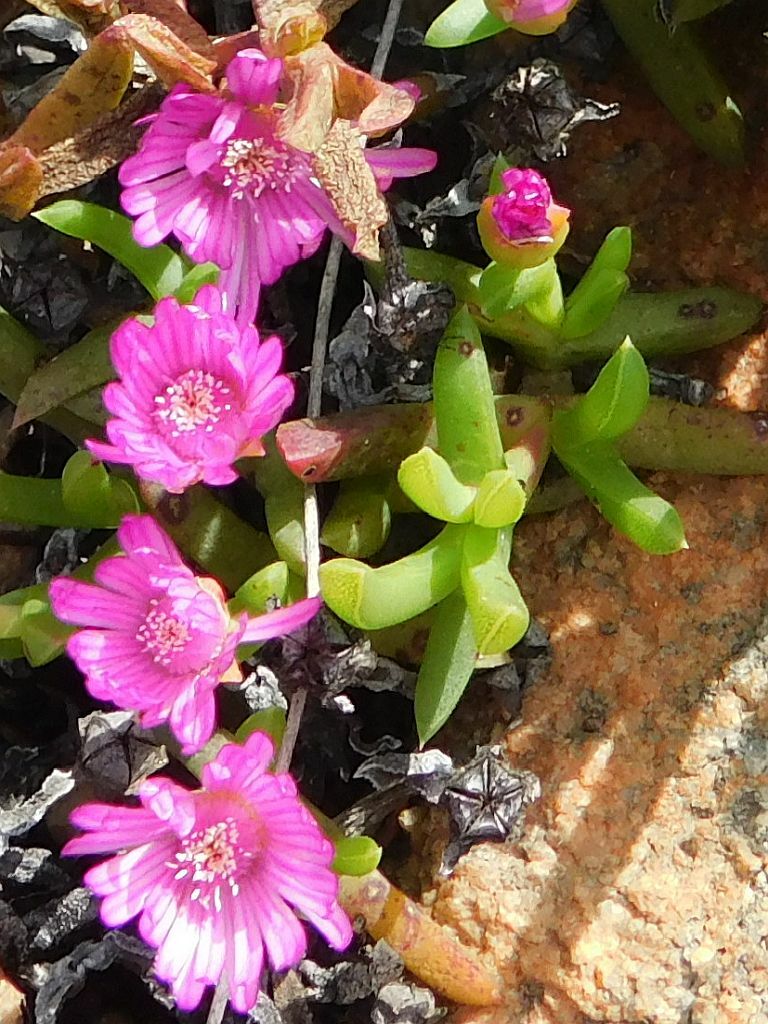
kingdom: Plantae
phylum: Tracheophyta
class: Magnoliopsida
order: Caryophyllales
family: Aizoaceae
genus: Ruschia
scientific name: Ruschia lineolata
